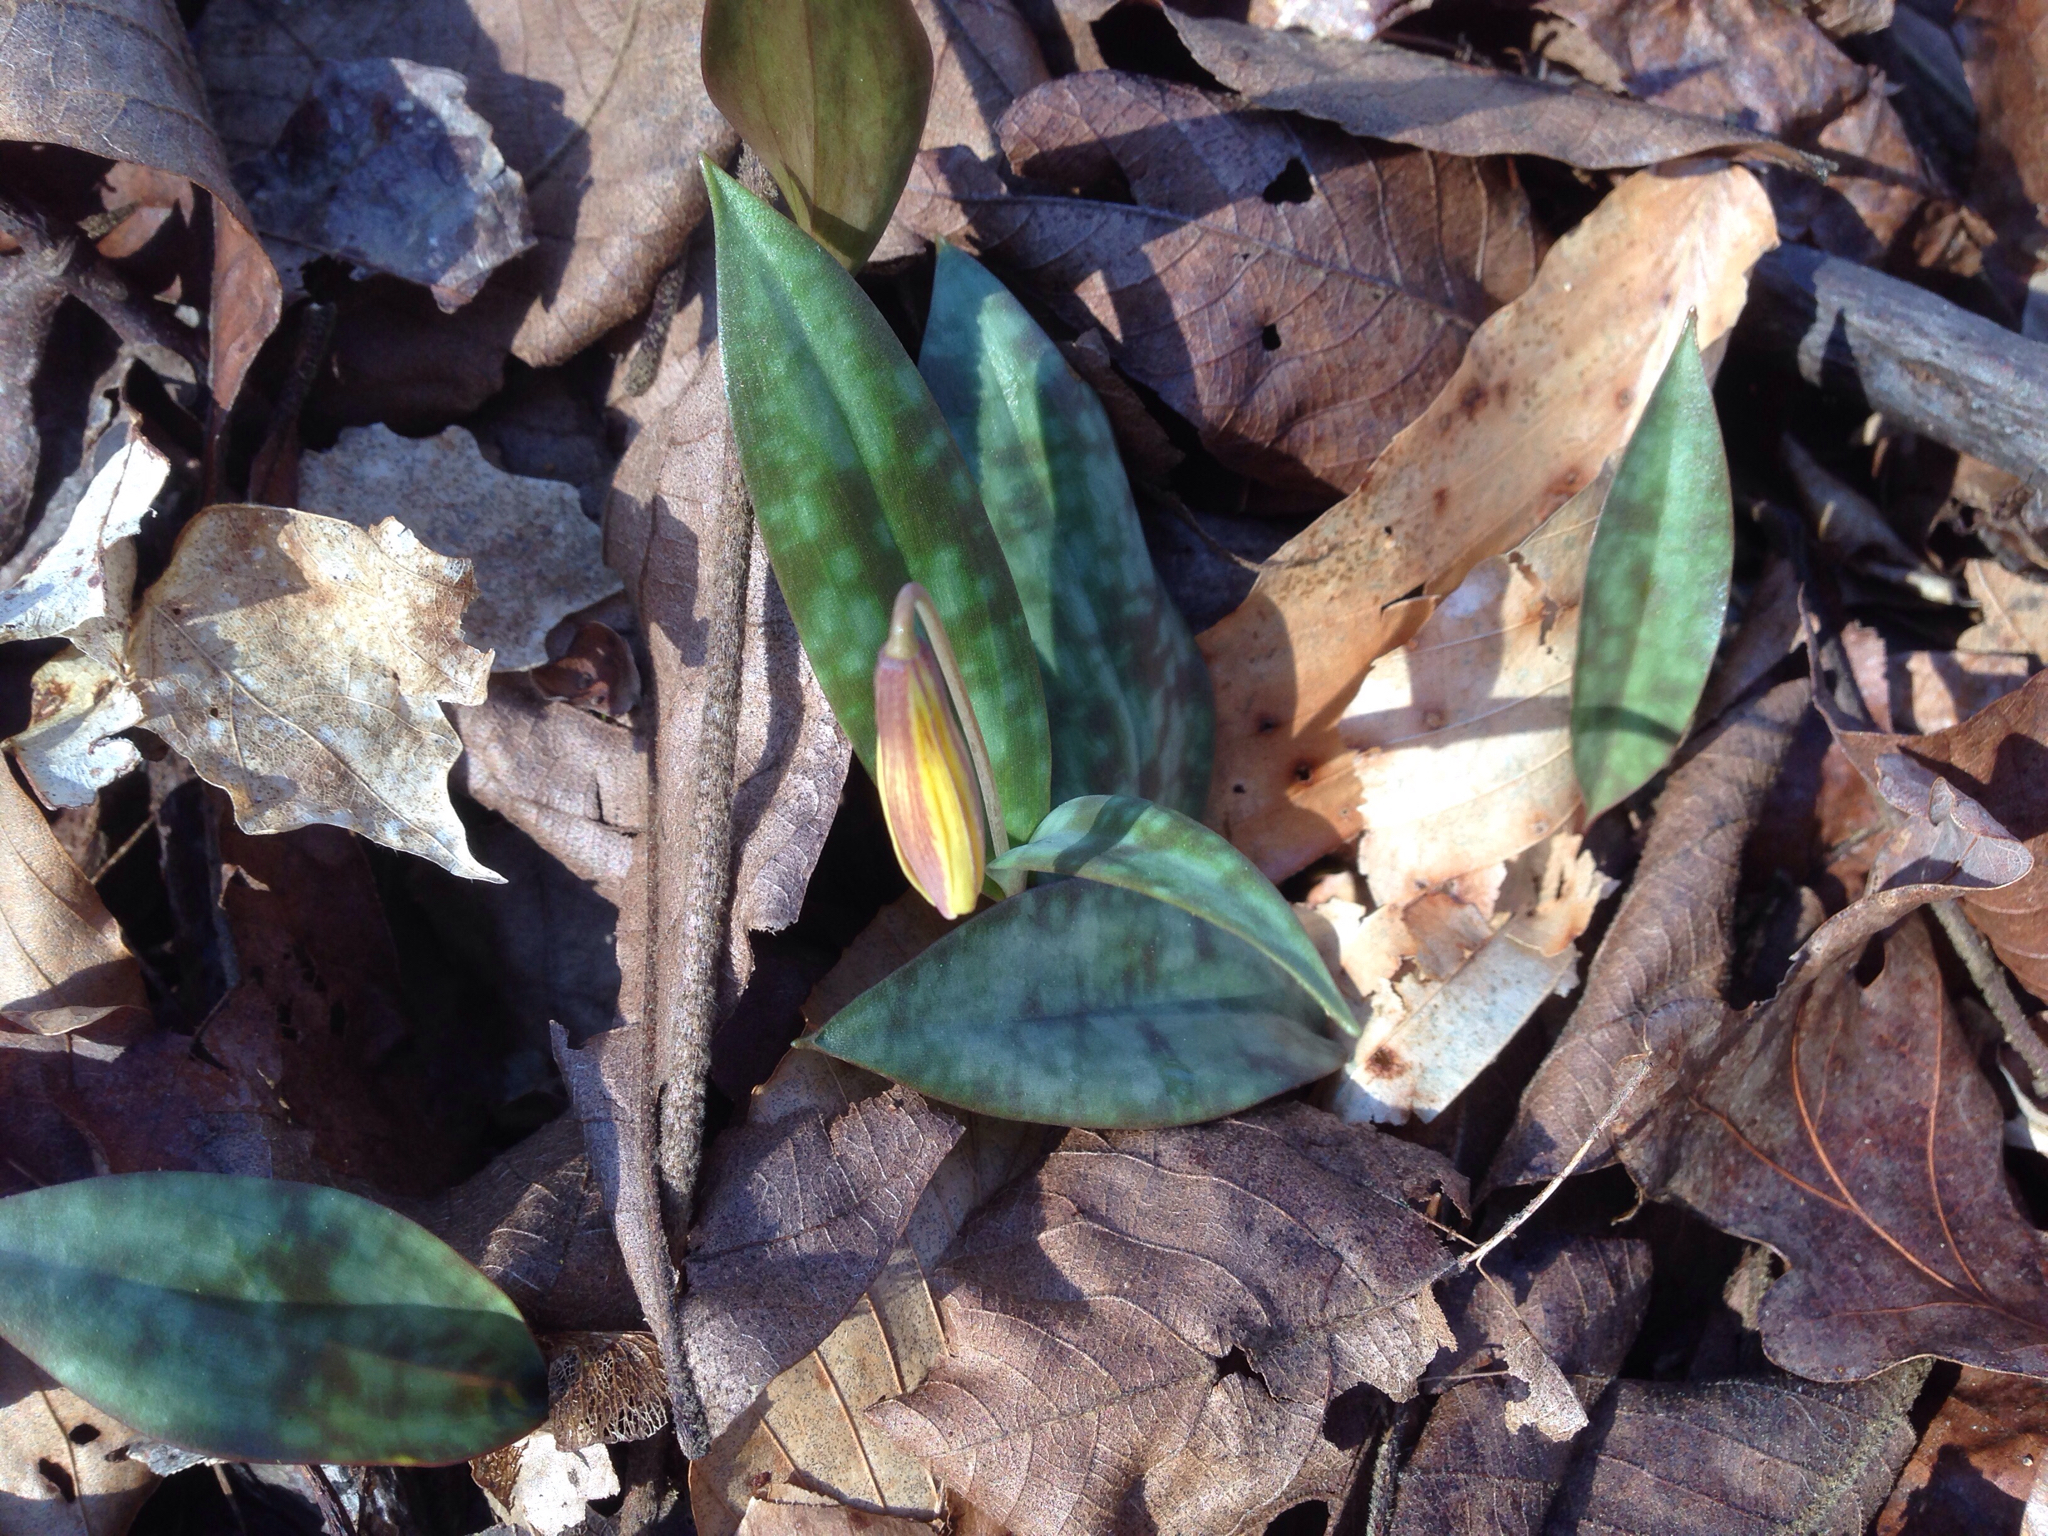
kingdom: Plantae
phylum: Tracheophyta
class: Liliopsida
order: Liliales
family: Liliaceae
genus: Erythronium
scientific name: Erythronium umbilicatum
